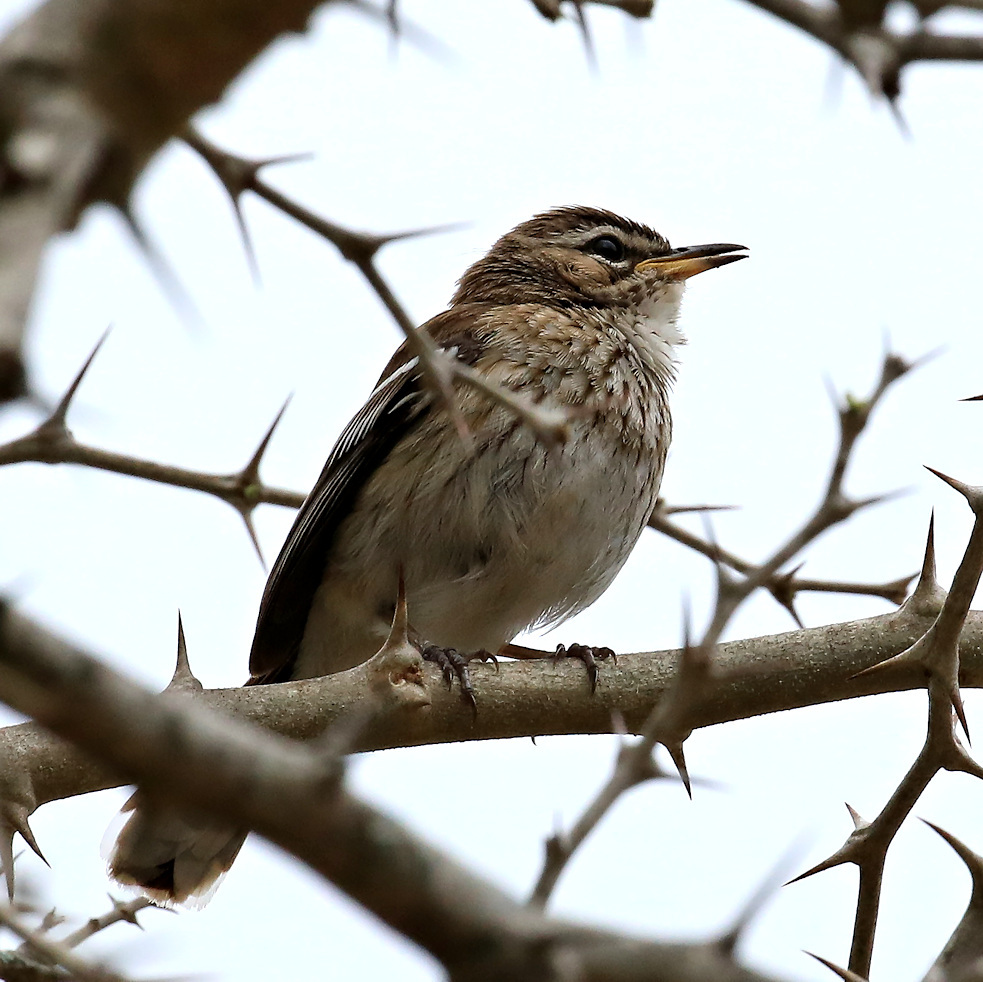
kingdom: Animalia
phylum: Chordata
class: Aves
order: Passeriformes
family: Muscicapidae
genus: Erythropygia
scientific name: Erythropygia leucophrys
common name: White-browed scrub robin
